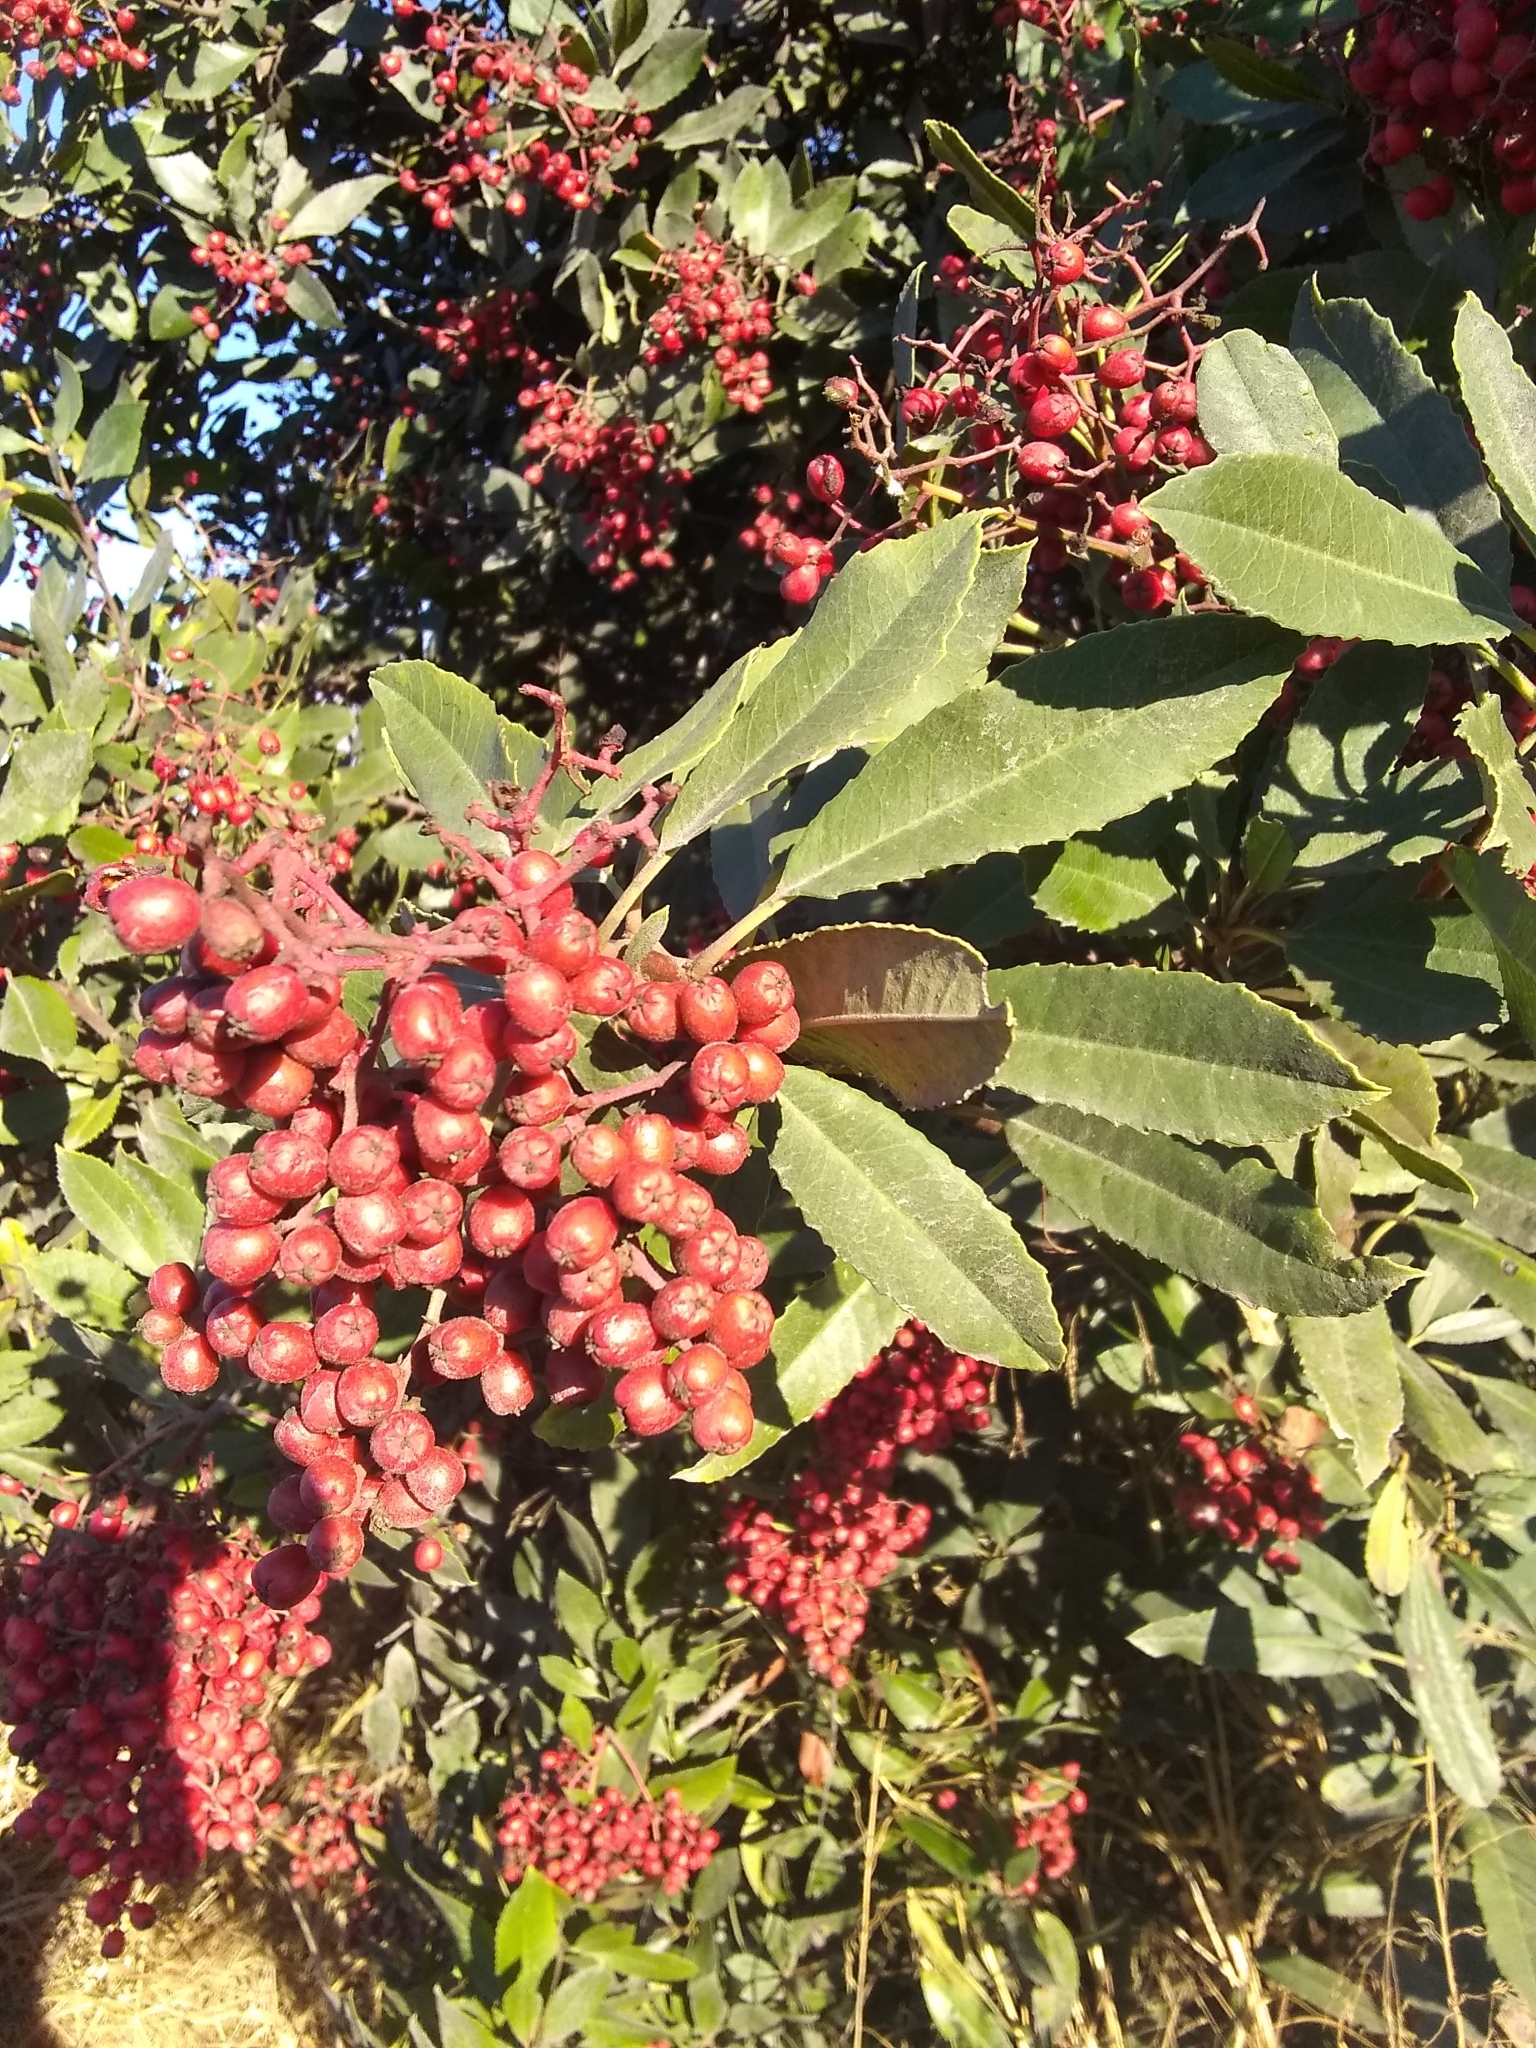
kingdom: Plantae
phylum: Tracheophyta
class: Magnoliopsida
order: Rosales
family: Rosaceae
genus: Heteromeles
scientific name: Heteromeles arbutifolia
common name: California-holly
